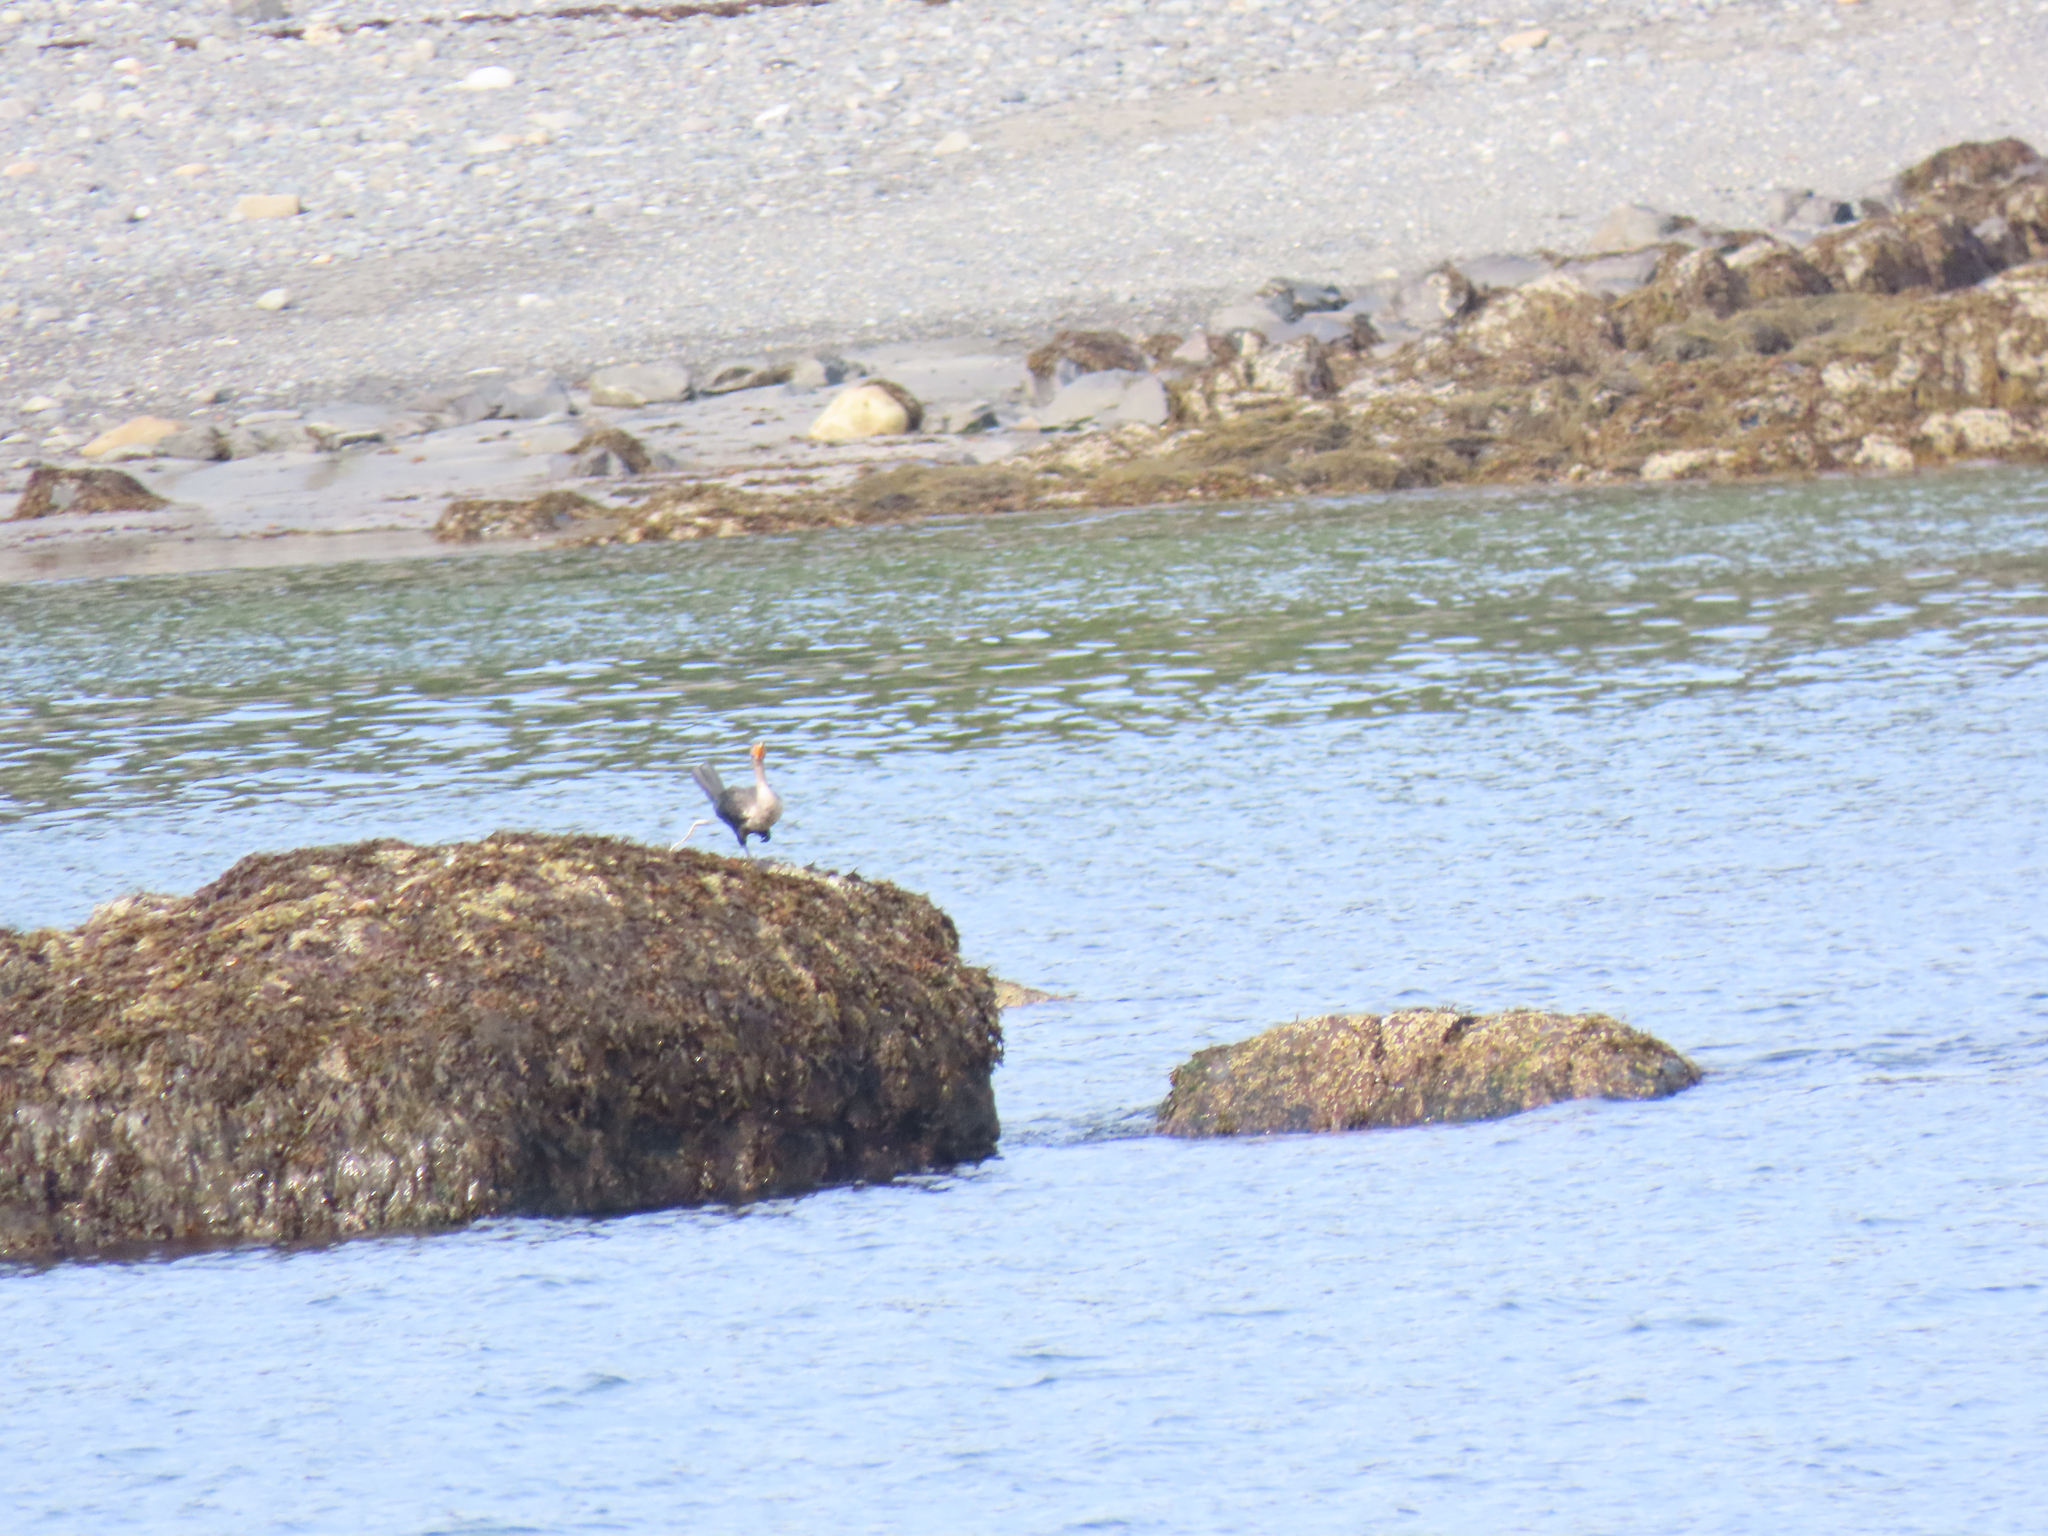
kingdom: Animalia
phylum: Chordata
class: Aves
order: Suliformes
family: Phalacrocoracidae
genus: Phalacrocorax
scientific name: Phalacrocorax auritus
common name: Double-crested cormorant
